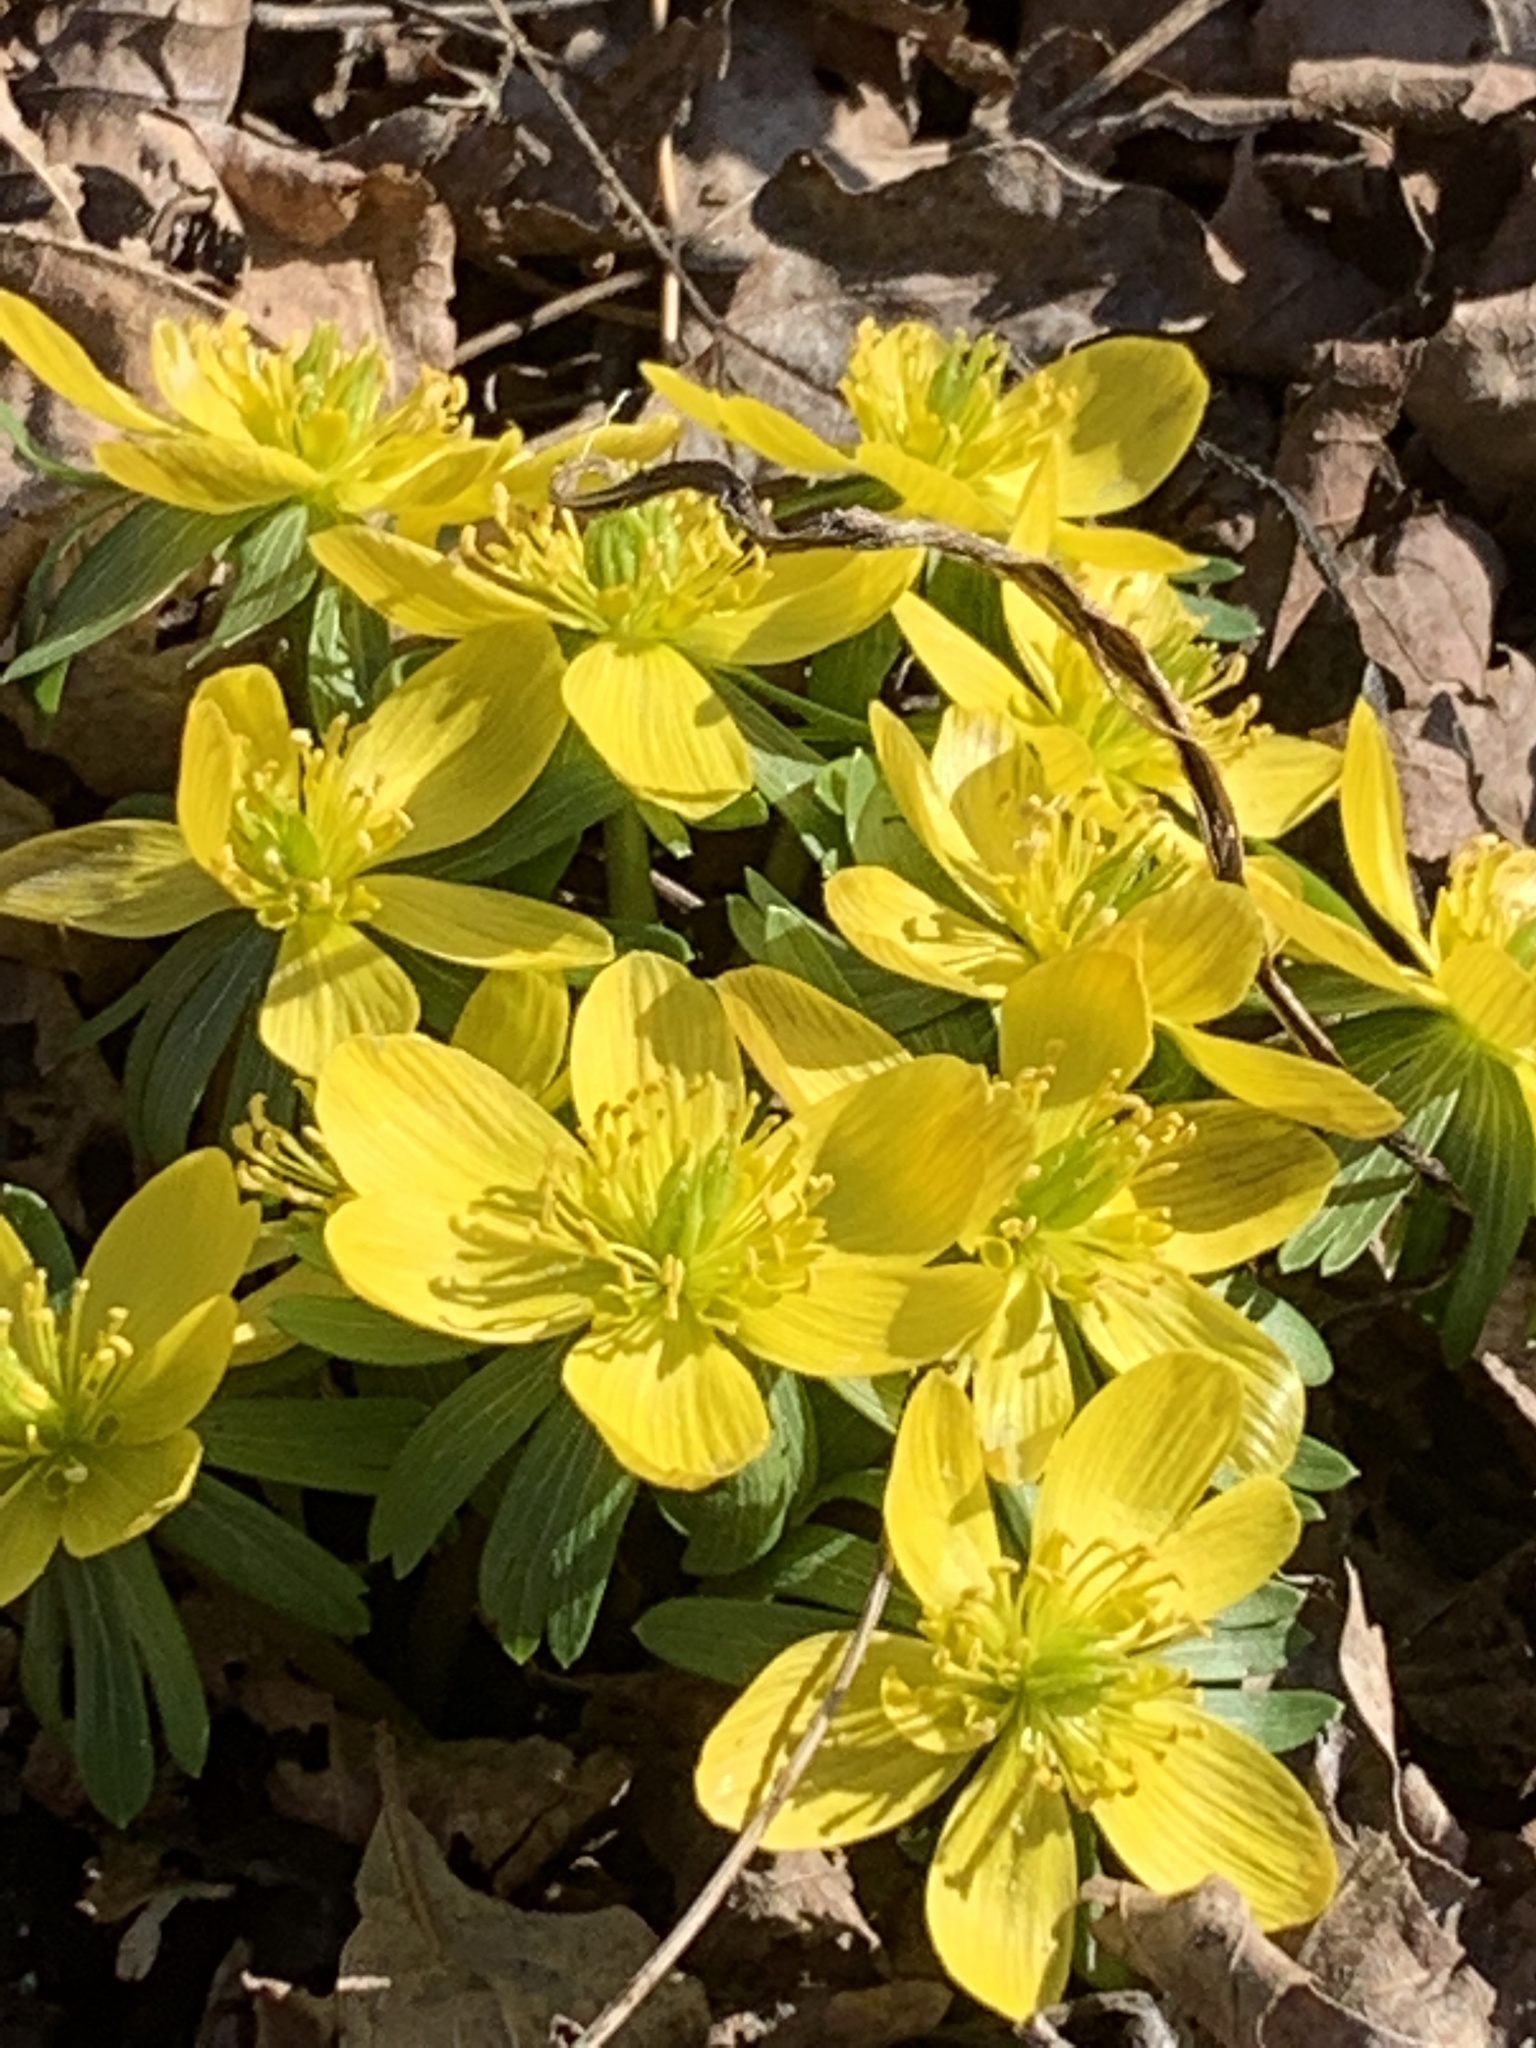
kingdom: Plantae
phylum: Tracheophyta
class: Magnoliopsida
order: Ranunculales
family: Ranunculaceae
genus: Eranthis
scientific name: Eranthis hyemalis
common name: Winter aconite
